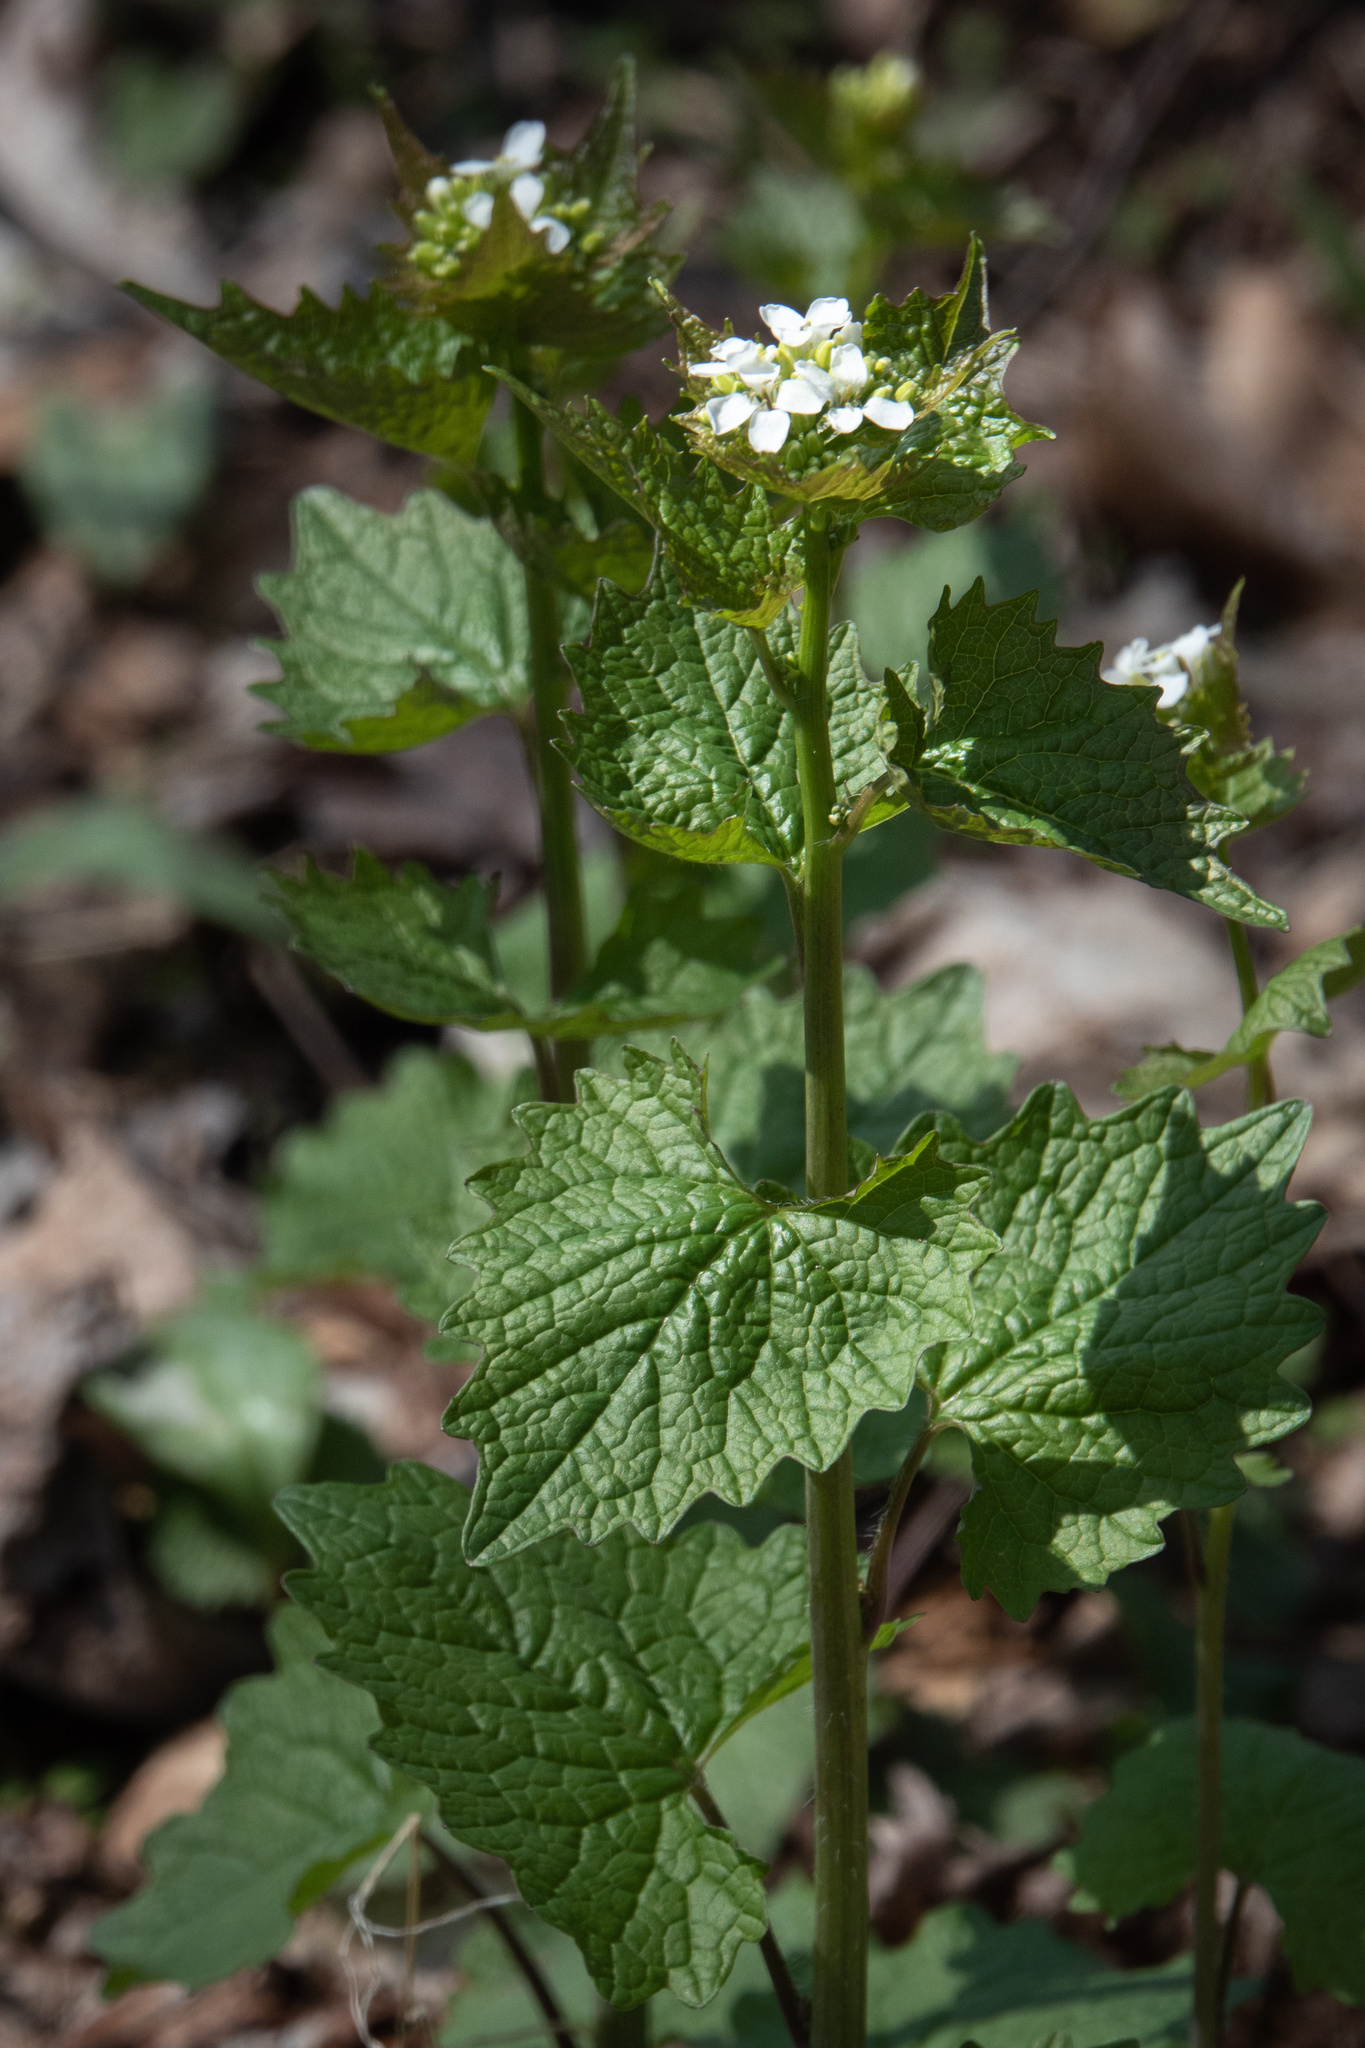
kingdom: Plantae
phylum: Tracheophyta
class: Magnoliopsida
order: Brassicales
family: Brassicaceae
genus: Alliaria
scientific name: Alliaria petiolata
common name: Garlic mustard
